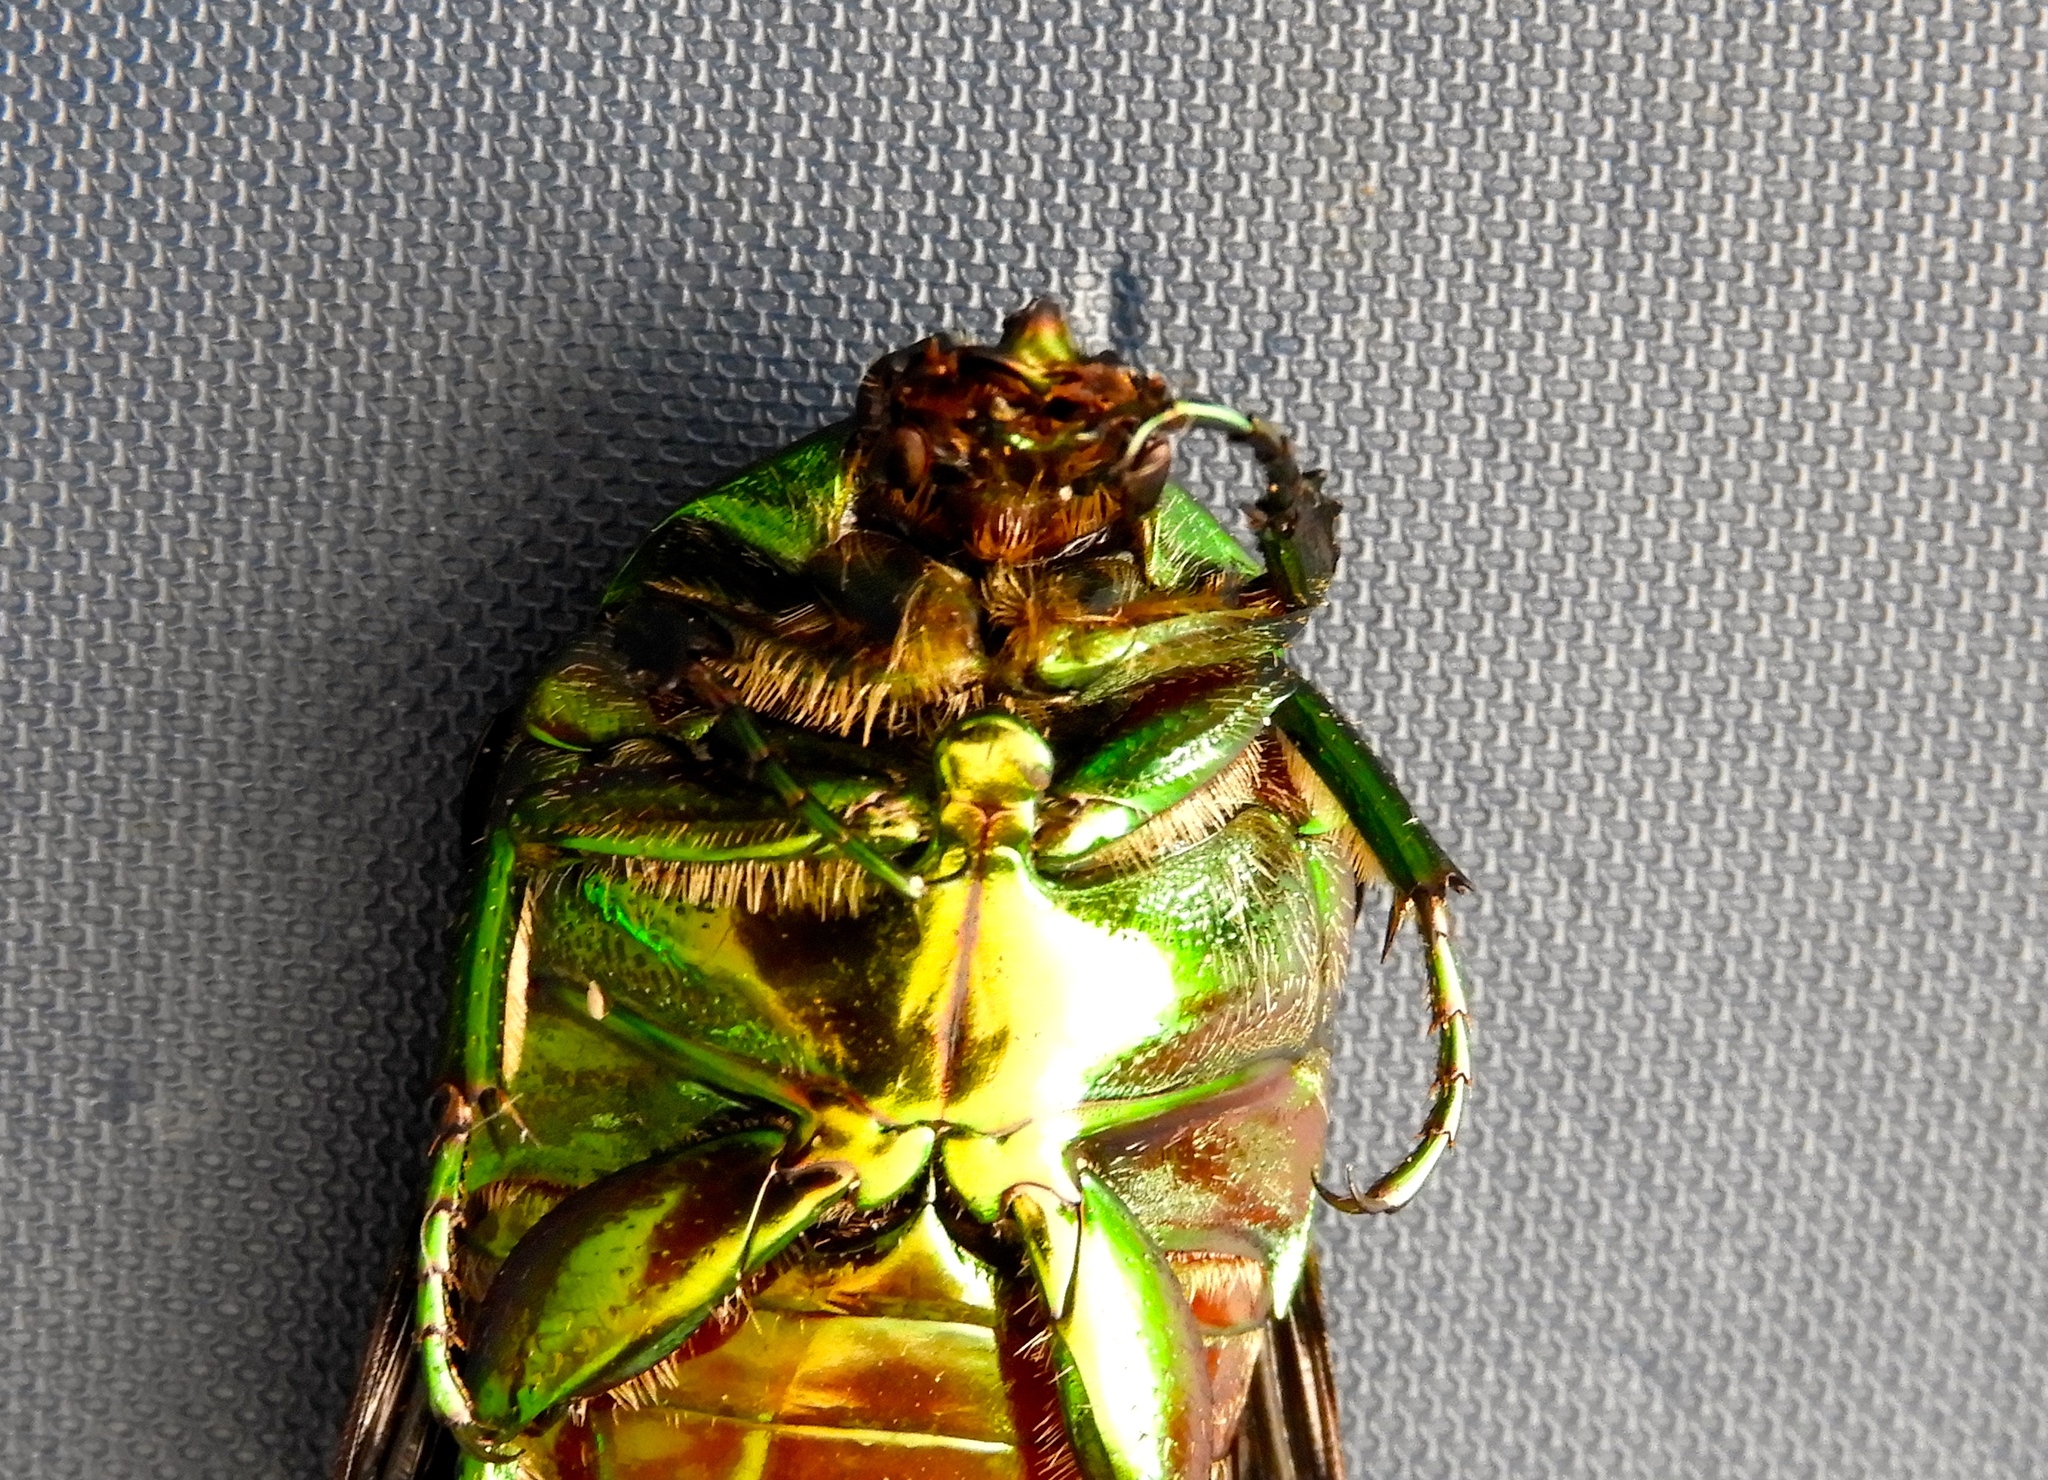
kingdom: Animalia
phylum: Arthropoda
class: Insecta
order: Coleoptera
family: Scarabaeidae
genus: Cotinis
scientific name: Cotinis mutabilis
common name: Figeater beetle
